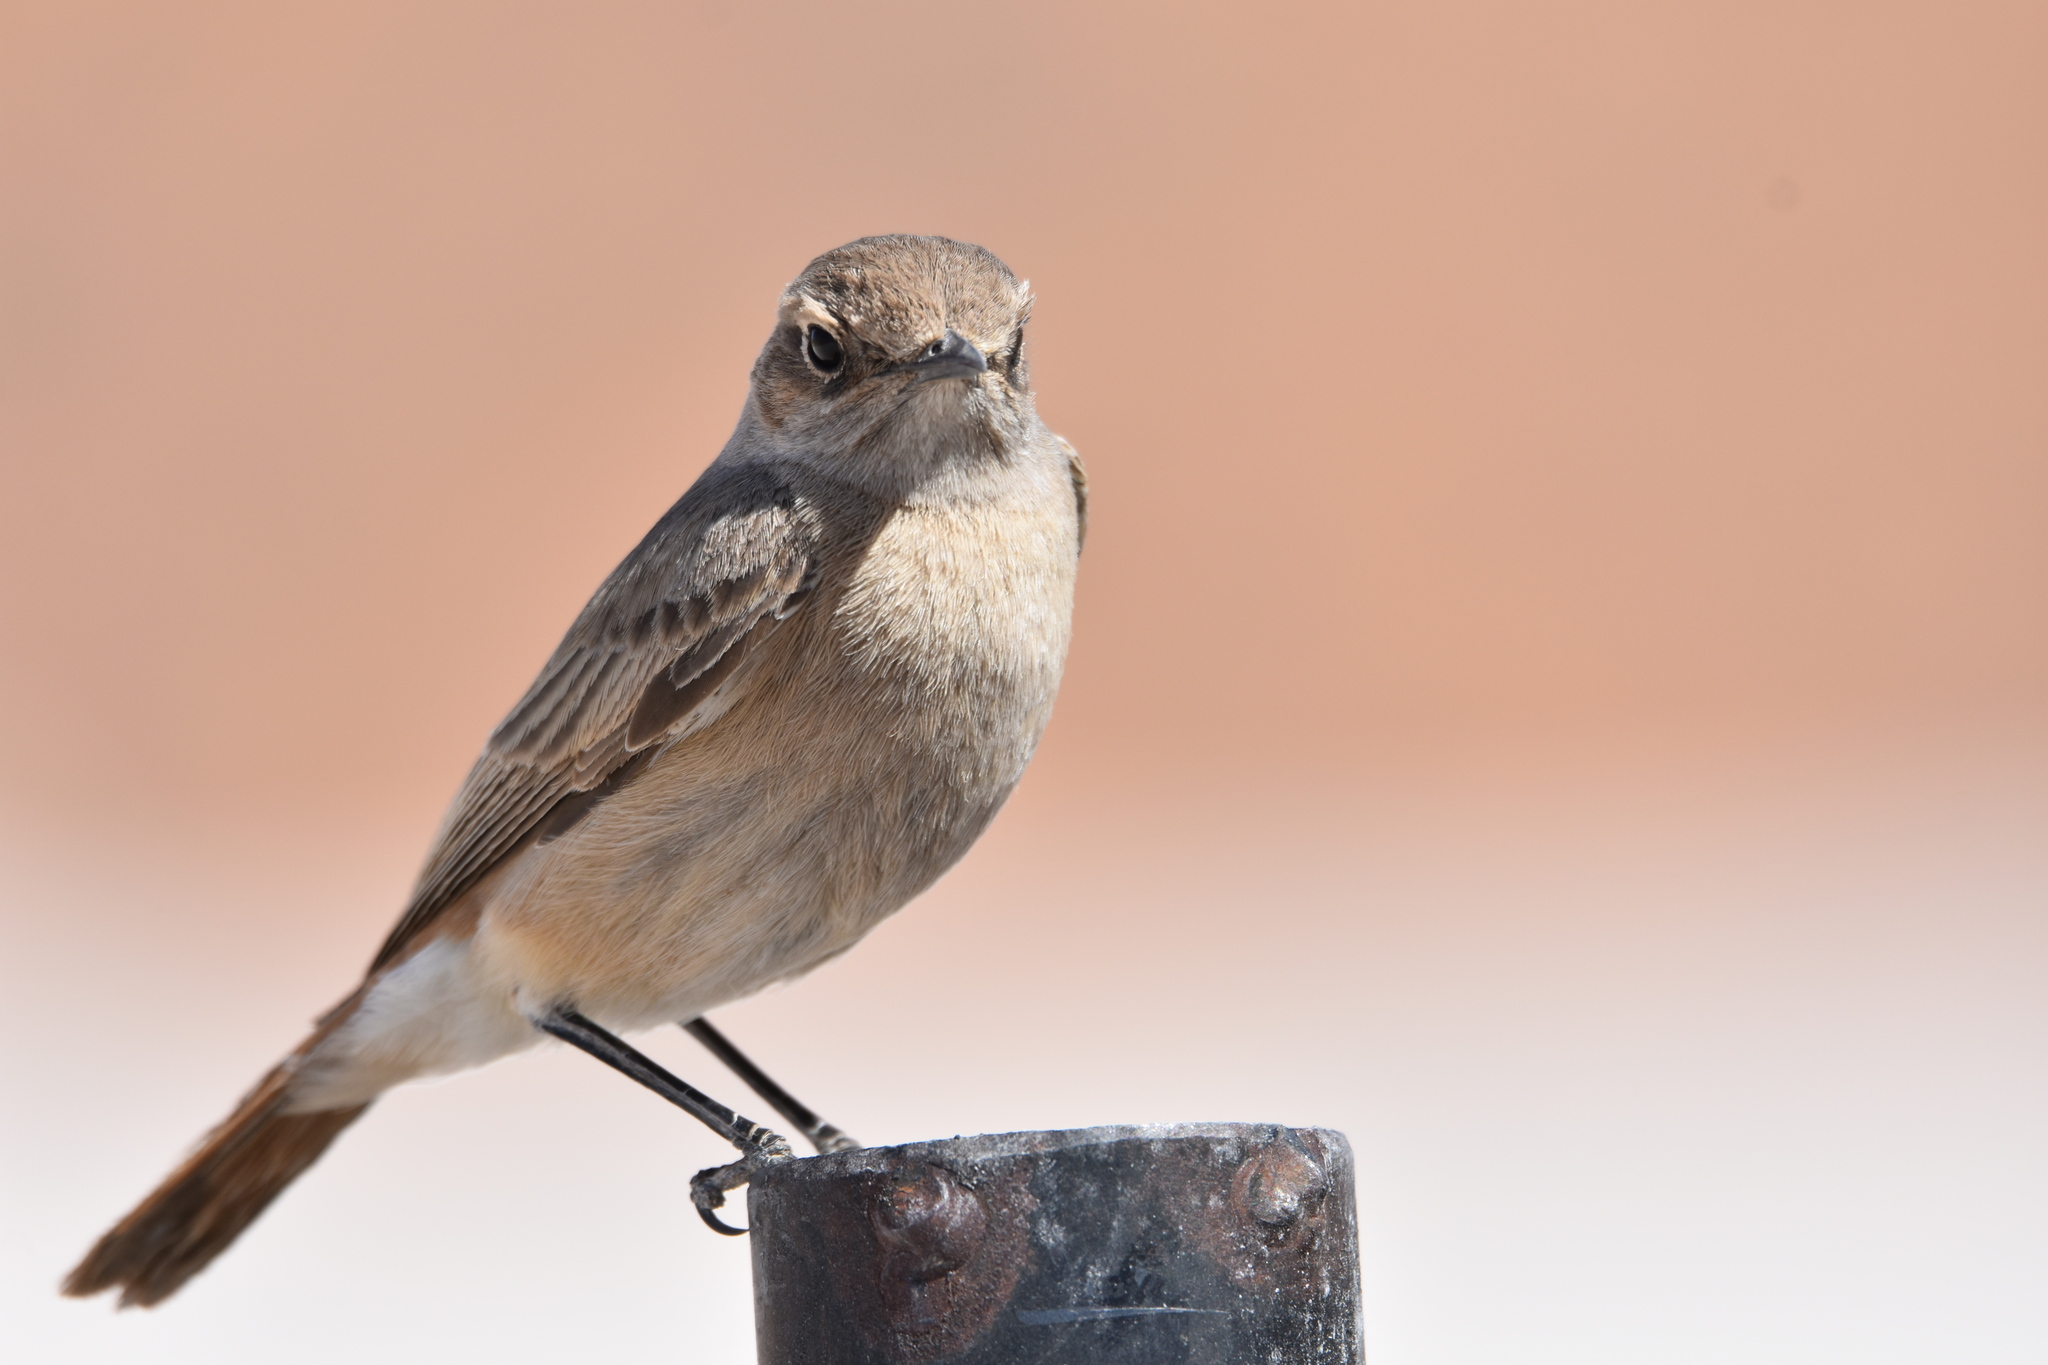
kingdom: Animalia
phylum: Chordata
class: Aves
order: Passeriformes
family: Muscicapidae
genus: Oenanthe
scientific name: Oenanthe familiaris
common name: Familiar chat
